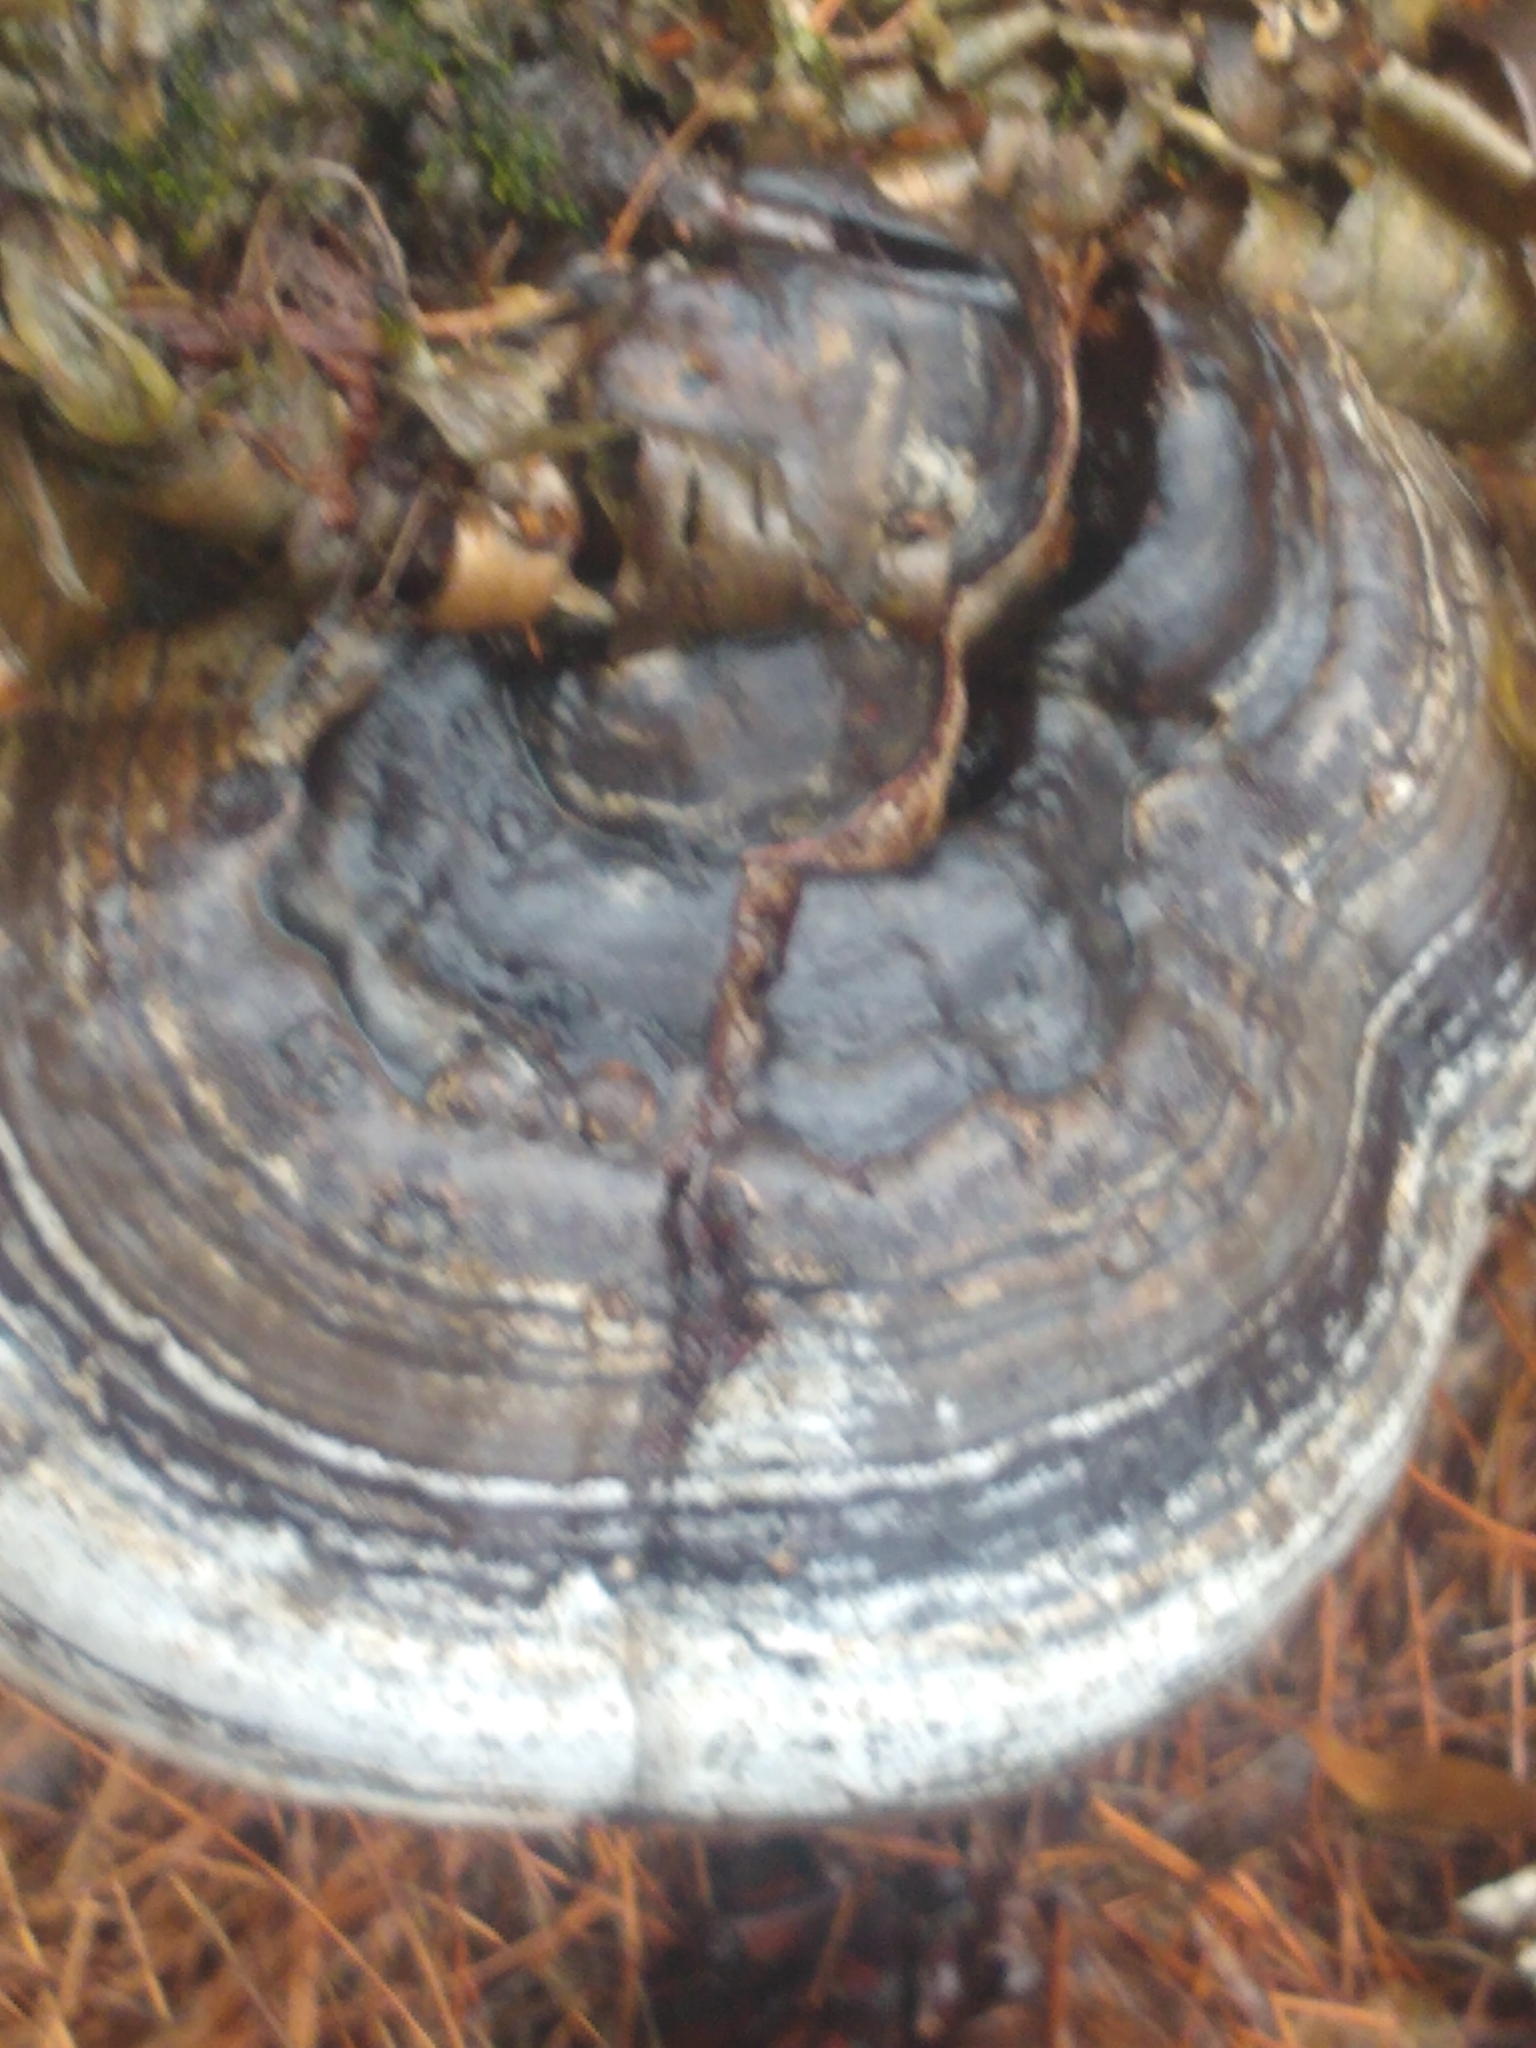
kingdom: Fungi
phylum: Basidiomycota
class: Agaricomycetes
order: Polyporales
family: Polyporaceae
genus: Fomes
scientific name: Fomes fomentarius
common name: Hoof fungus
